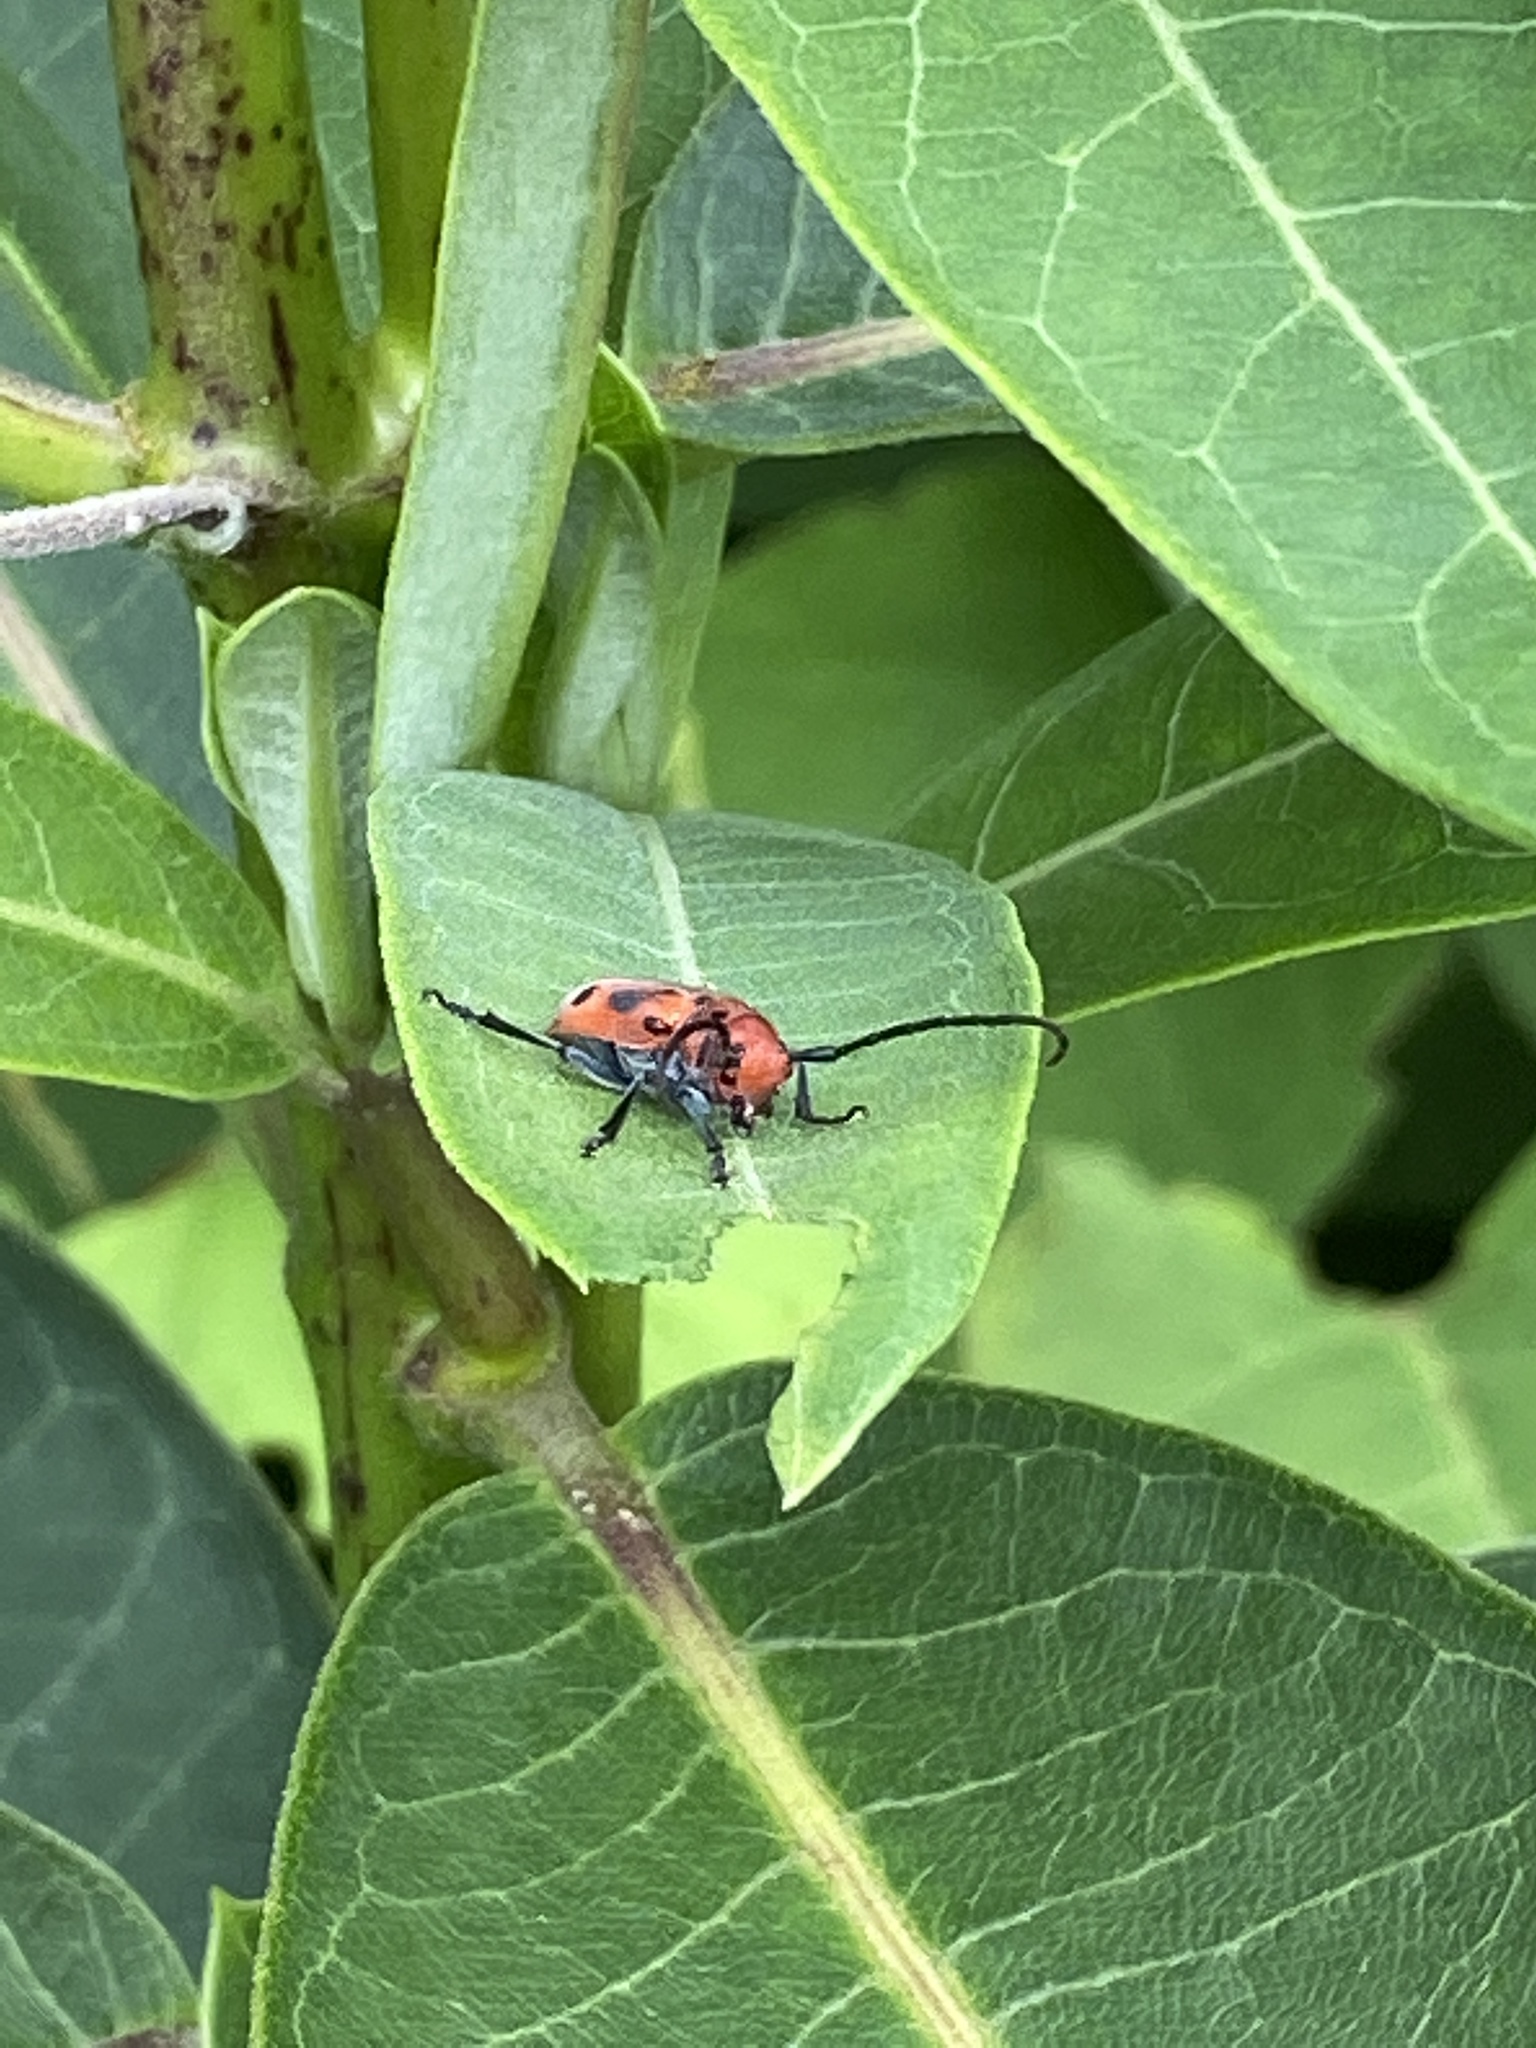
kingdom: Animalia
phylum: Arthropoda
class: Insecta
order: Coleoptera
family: Cerambycidae
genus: Tetraopes
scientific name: Tetraopes tetrophthalmus
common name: Red milkweed beetle
